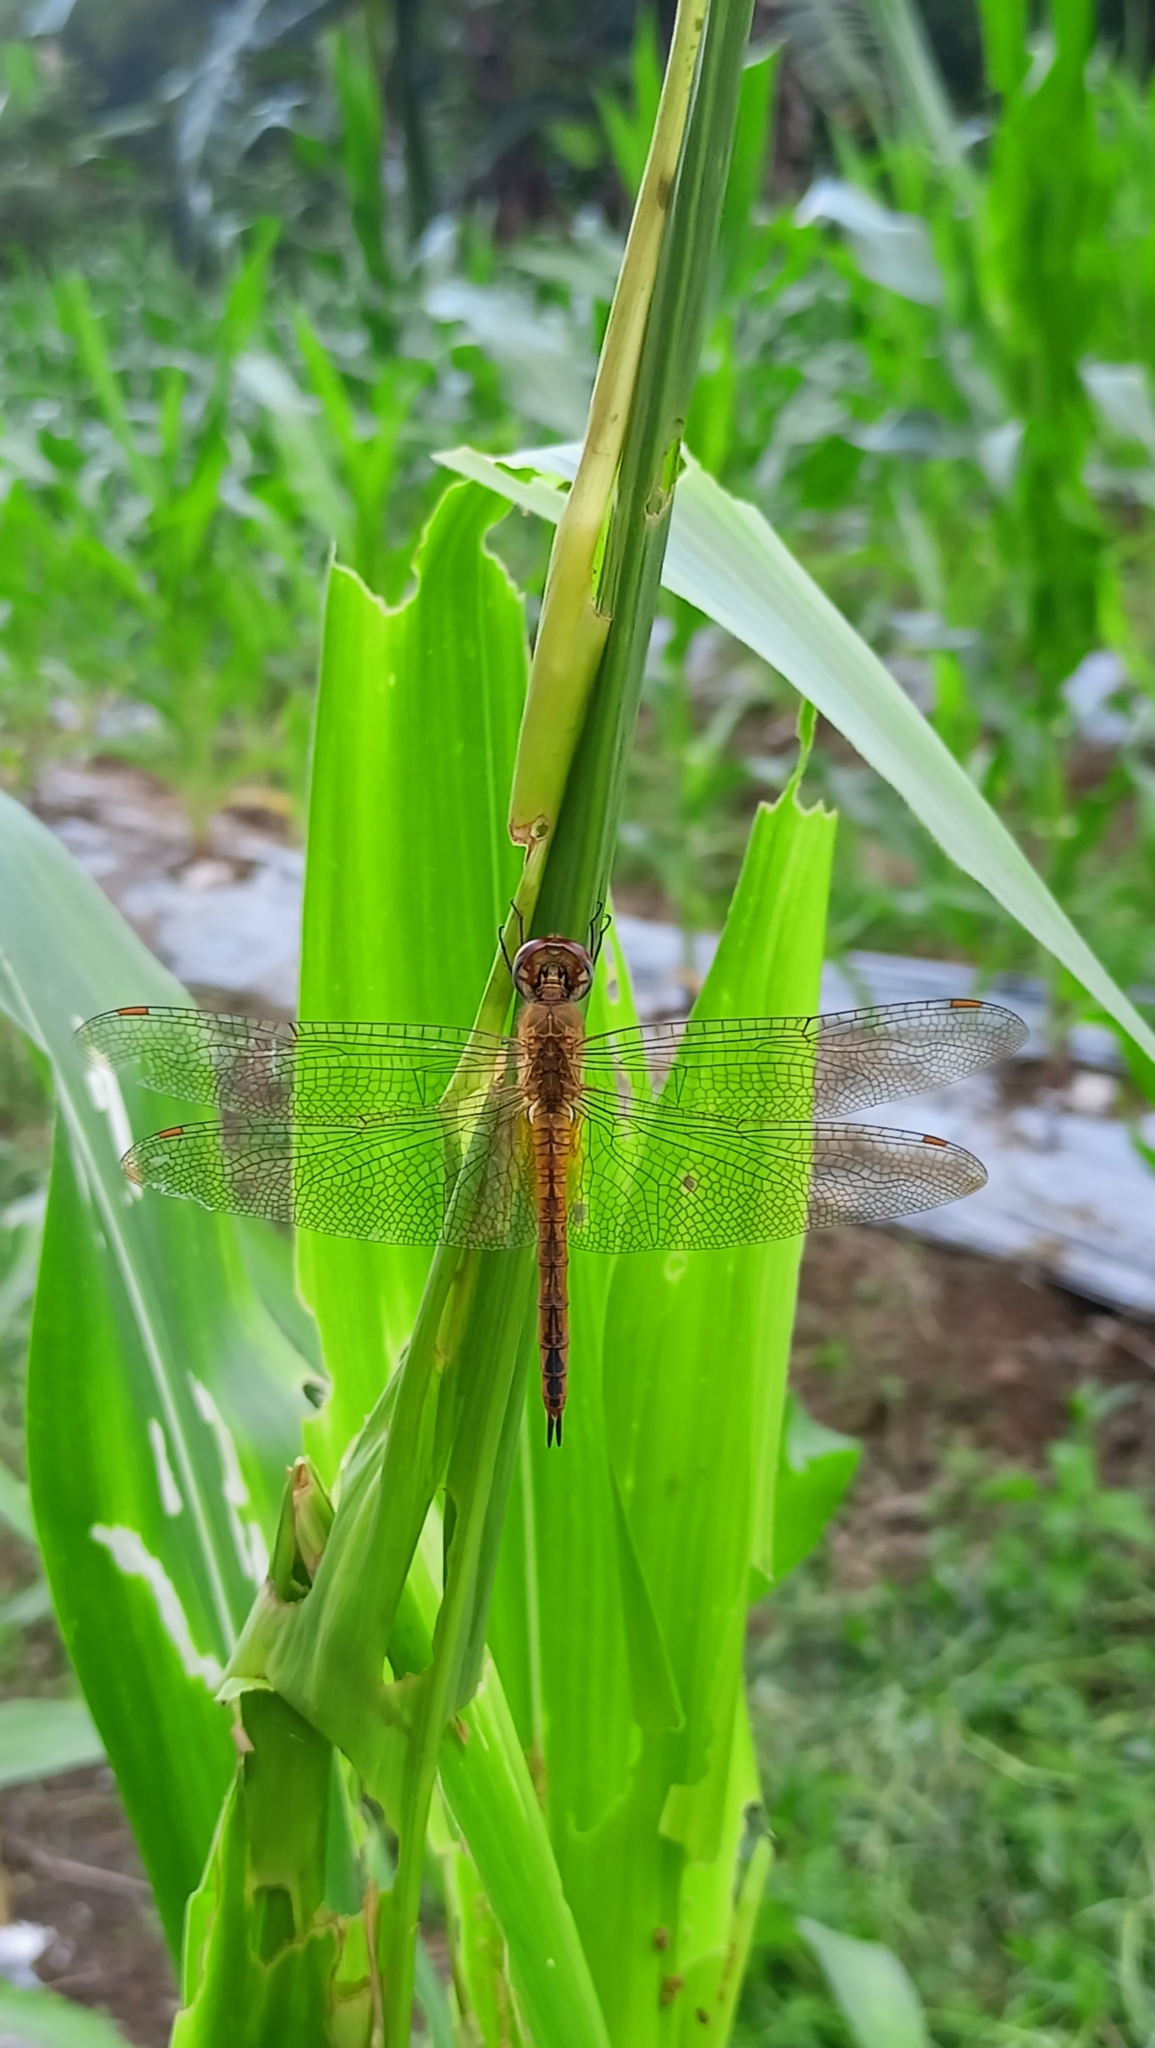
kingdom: Animalia
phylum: Arthropoda
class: Insecta
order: Odonata
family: Libellulidae
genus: Pantala
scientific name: Pantala flavescens
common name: Wandering glider
